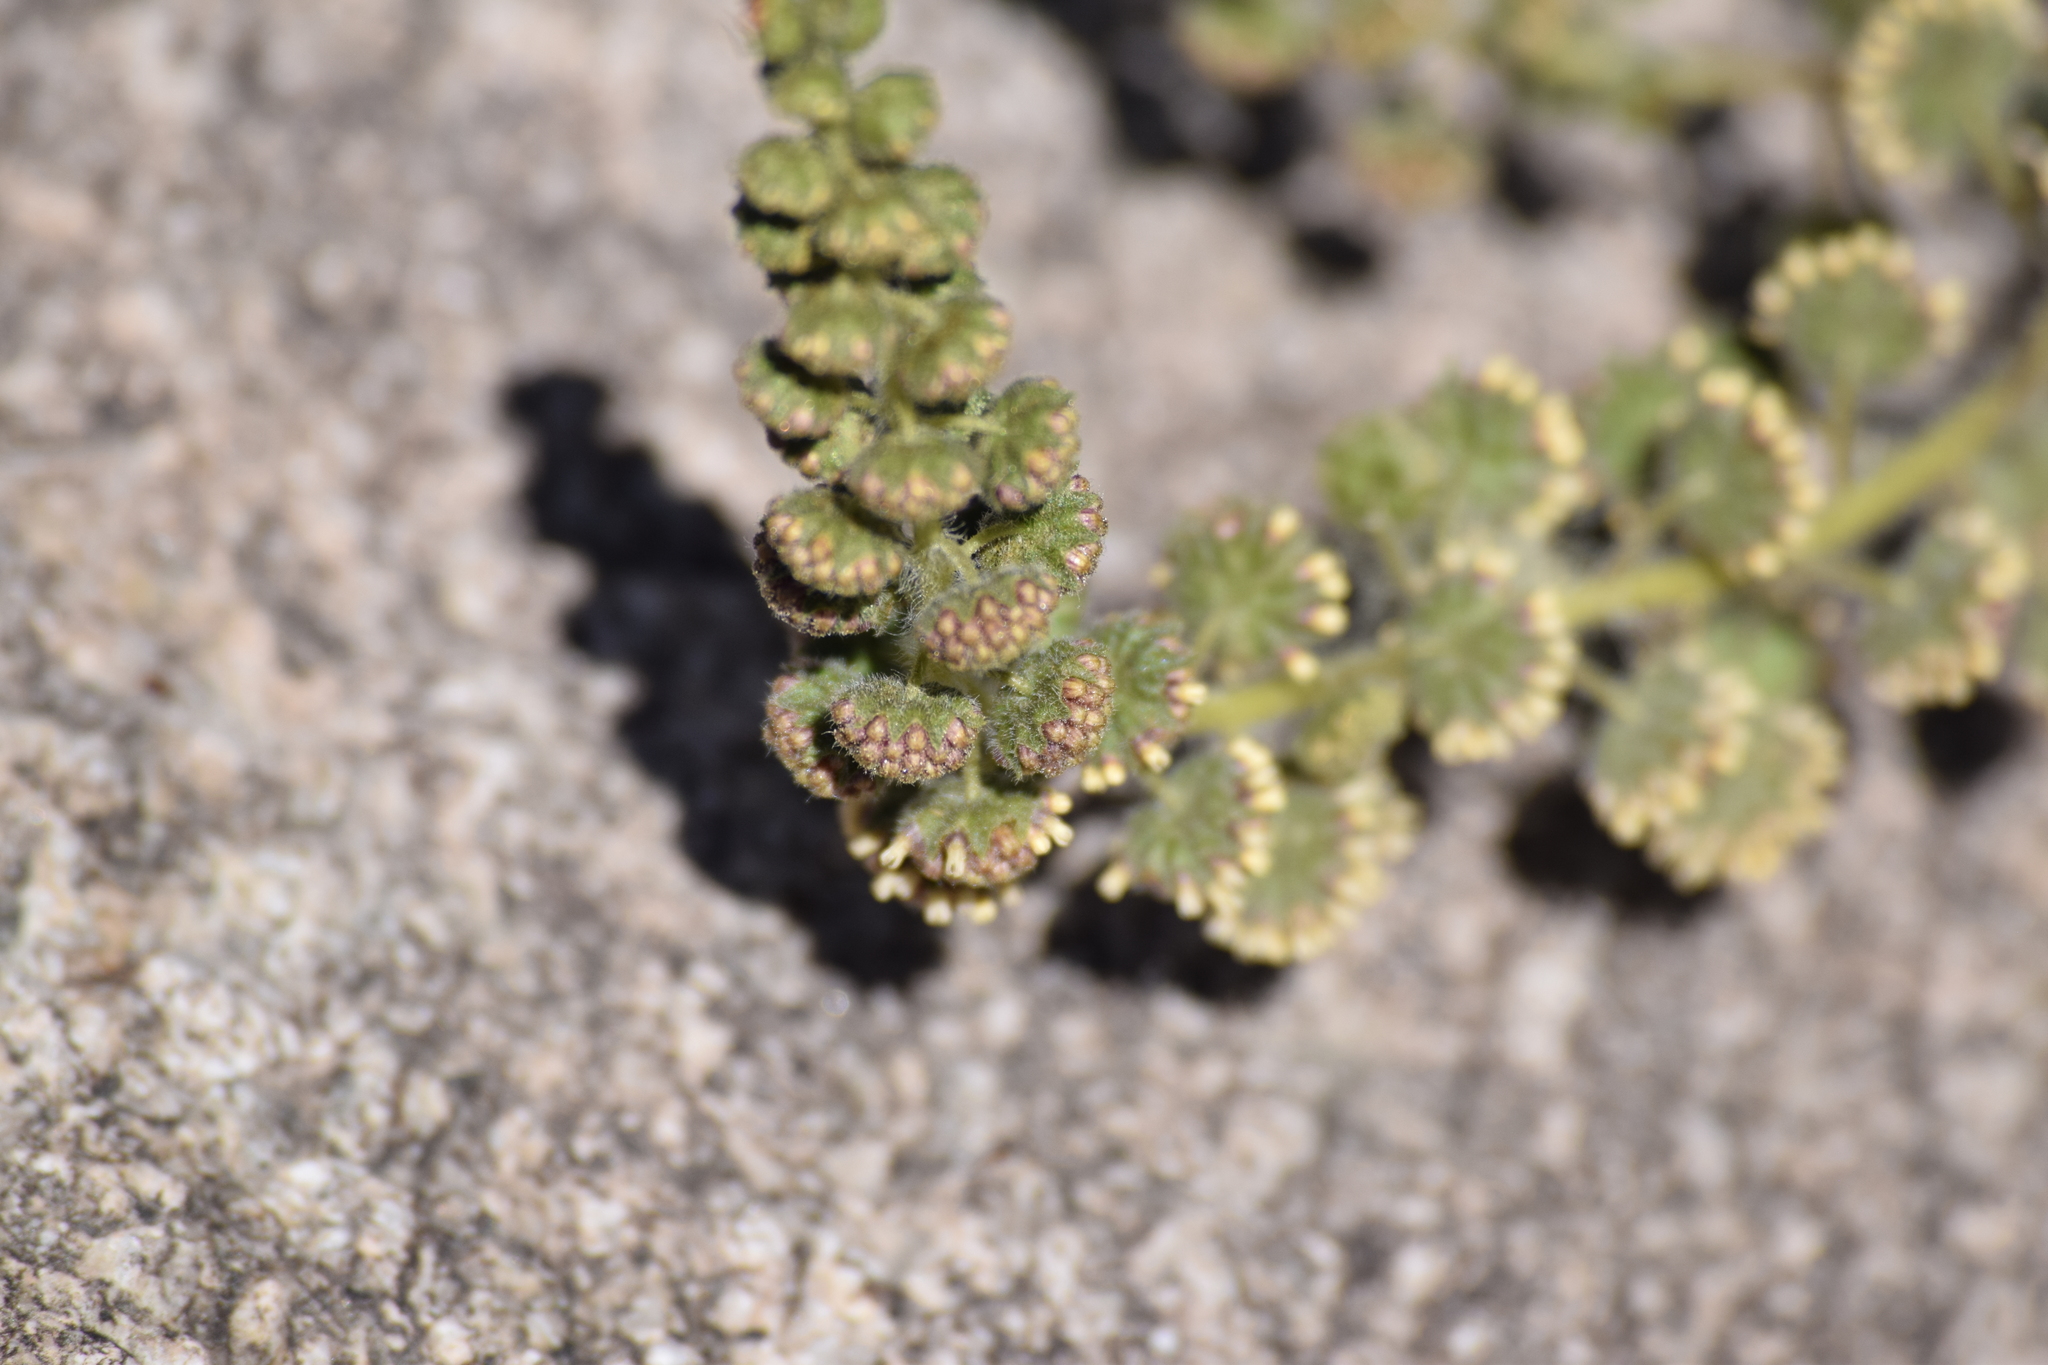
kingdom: Plantae
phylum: Tracheophyta
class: Magnoliopsida
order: Asterales
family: Asteraceae
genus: Ambrosia
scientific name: Ambrosia ambrosioides
